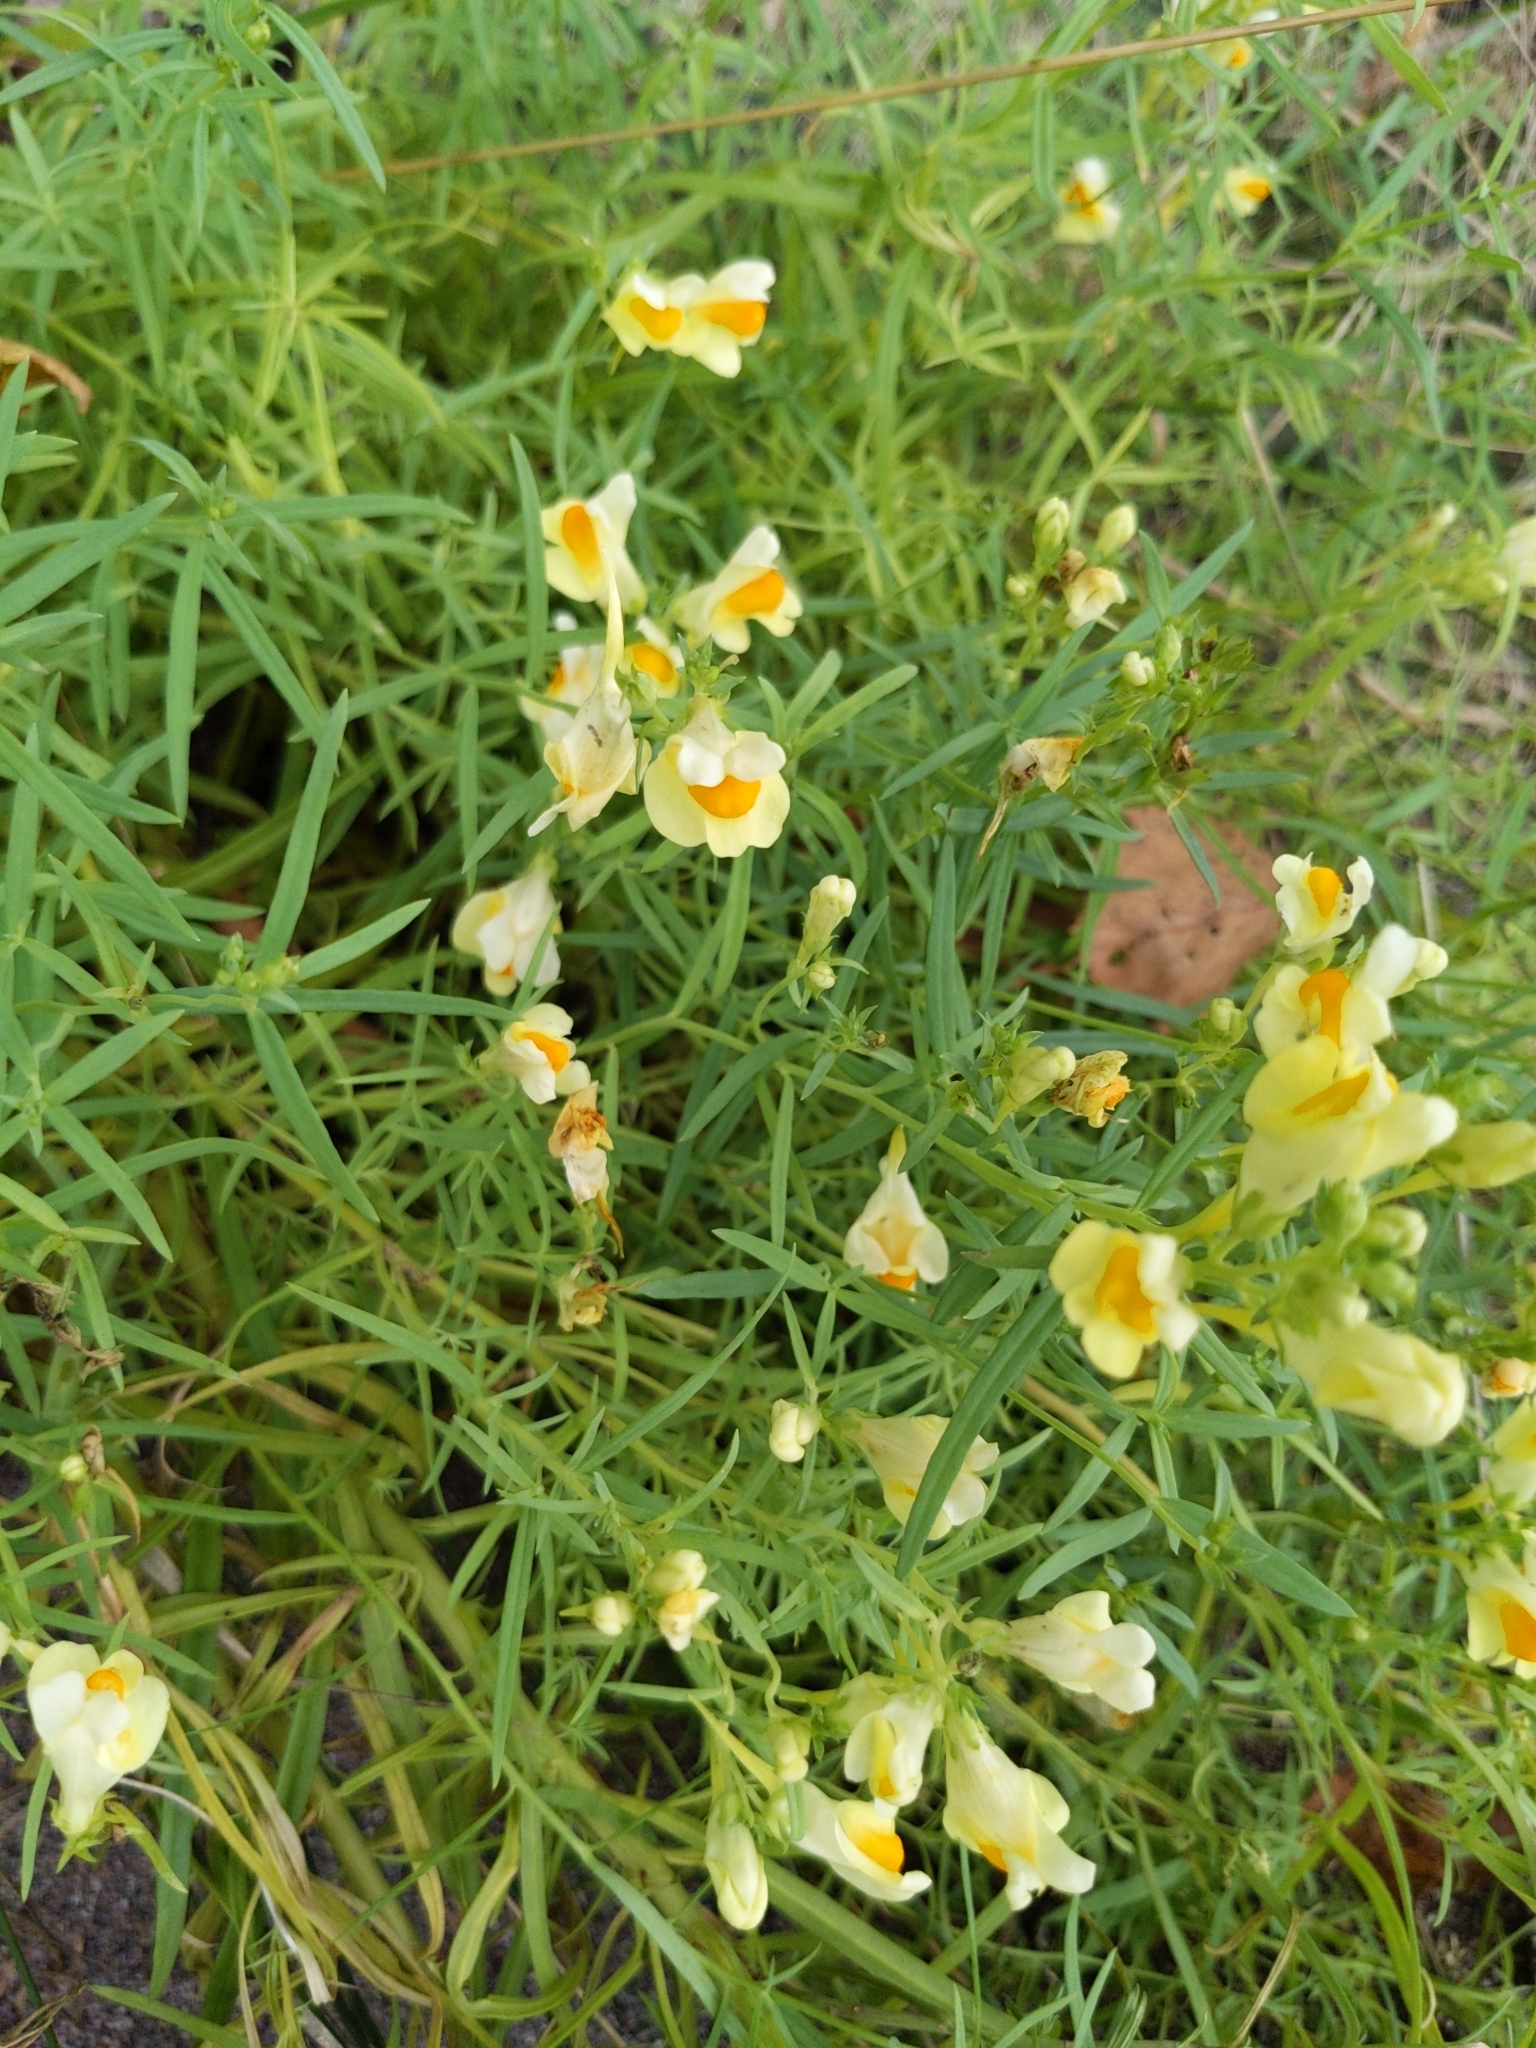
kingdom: Plantae
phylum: Tracheophyta
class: Magnoliopsida
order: Lamiales
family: Plantaginaceae
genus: Linaria
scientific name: Linaria vulgaris
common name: Butter and eggs
